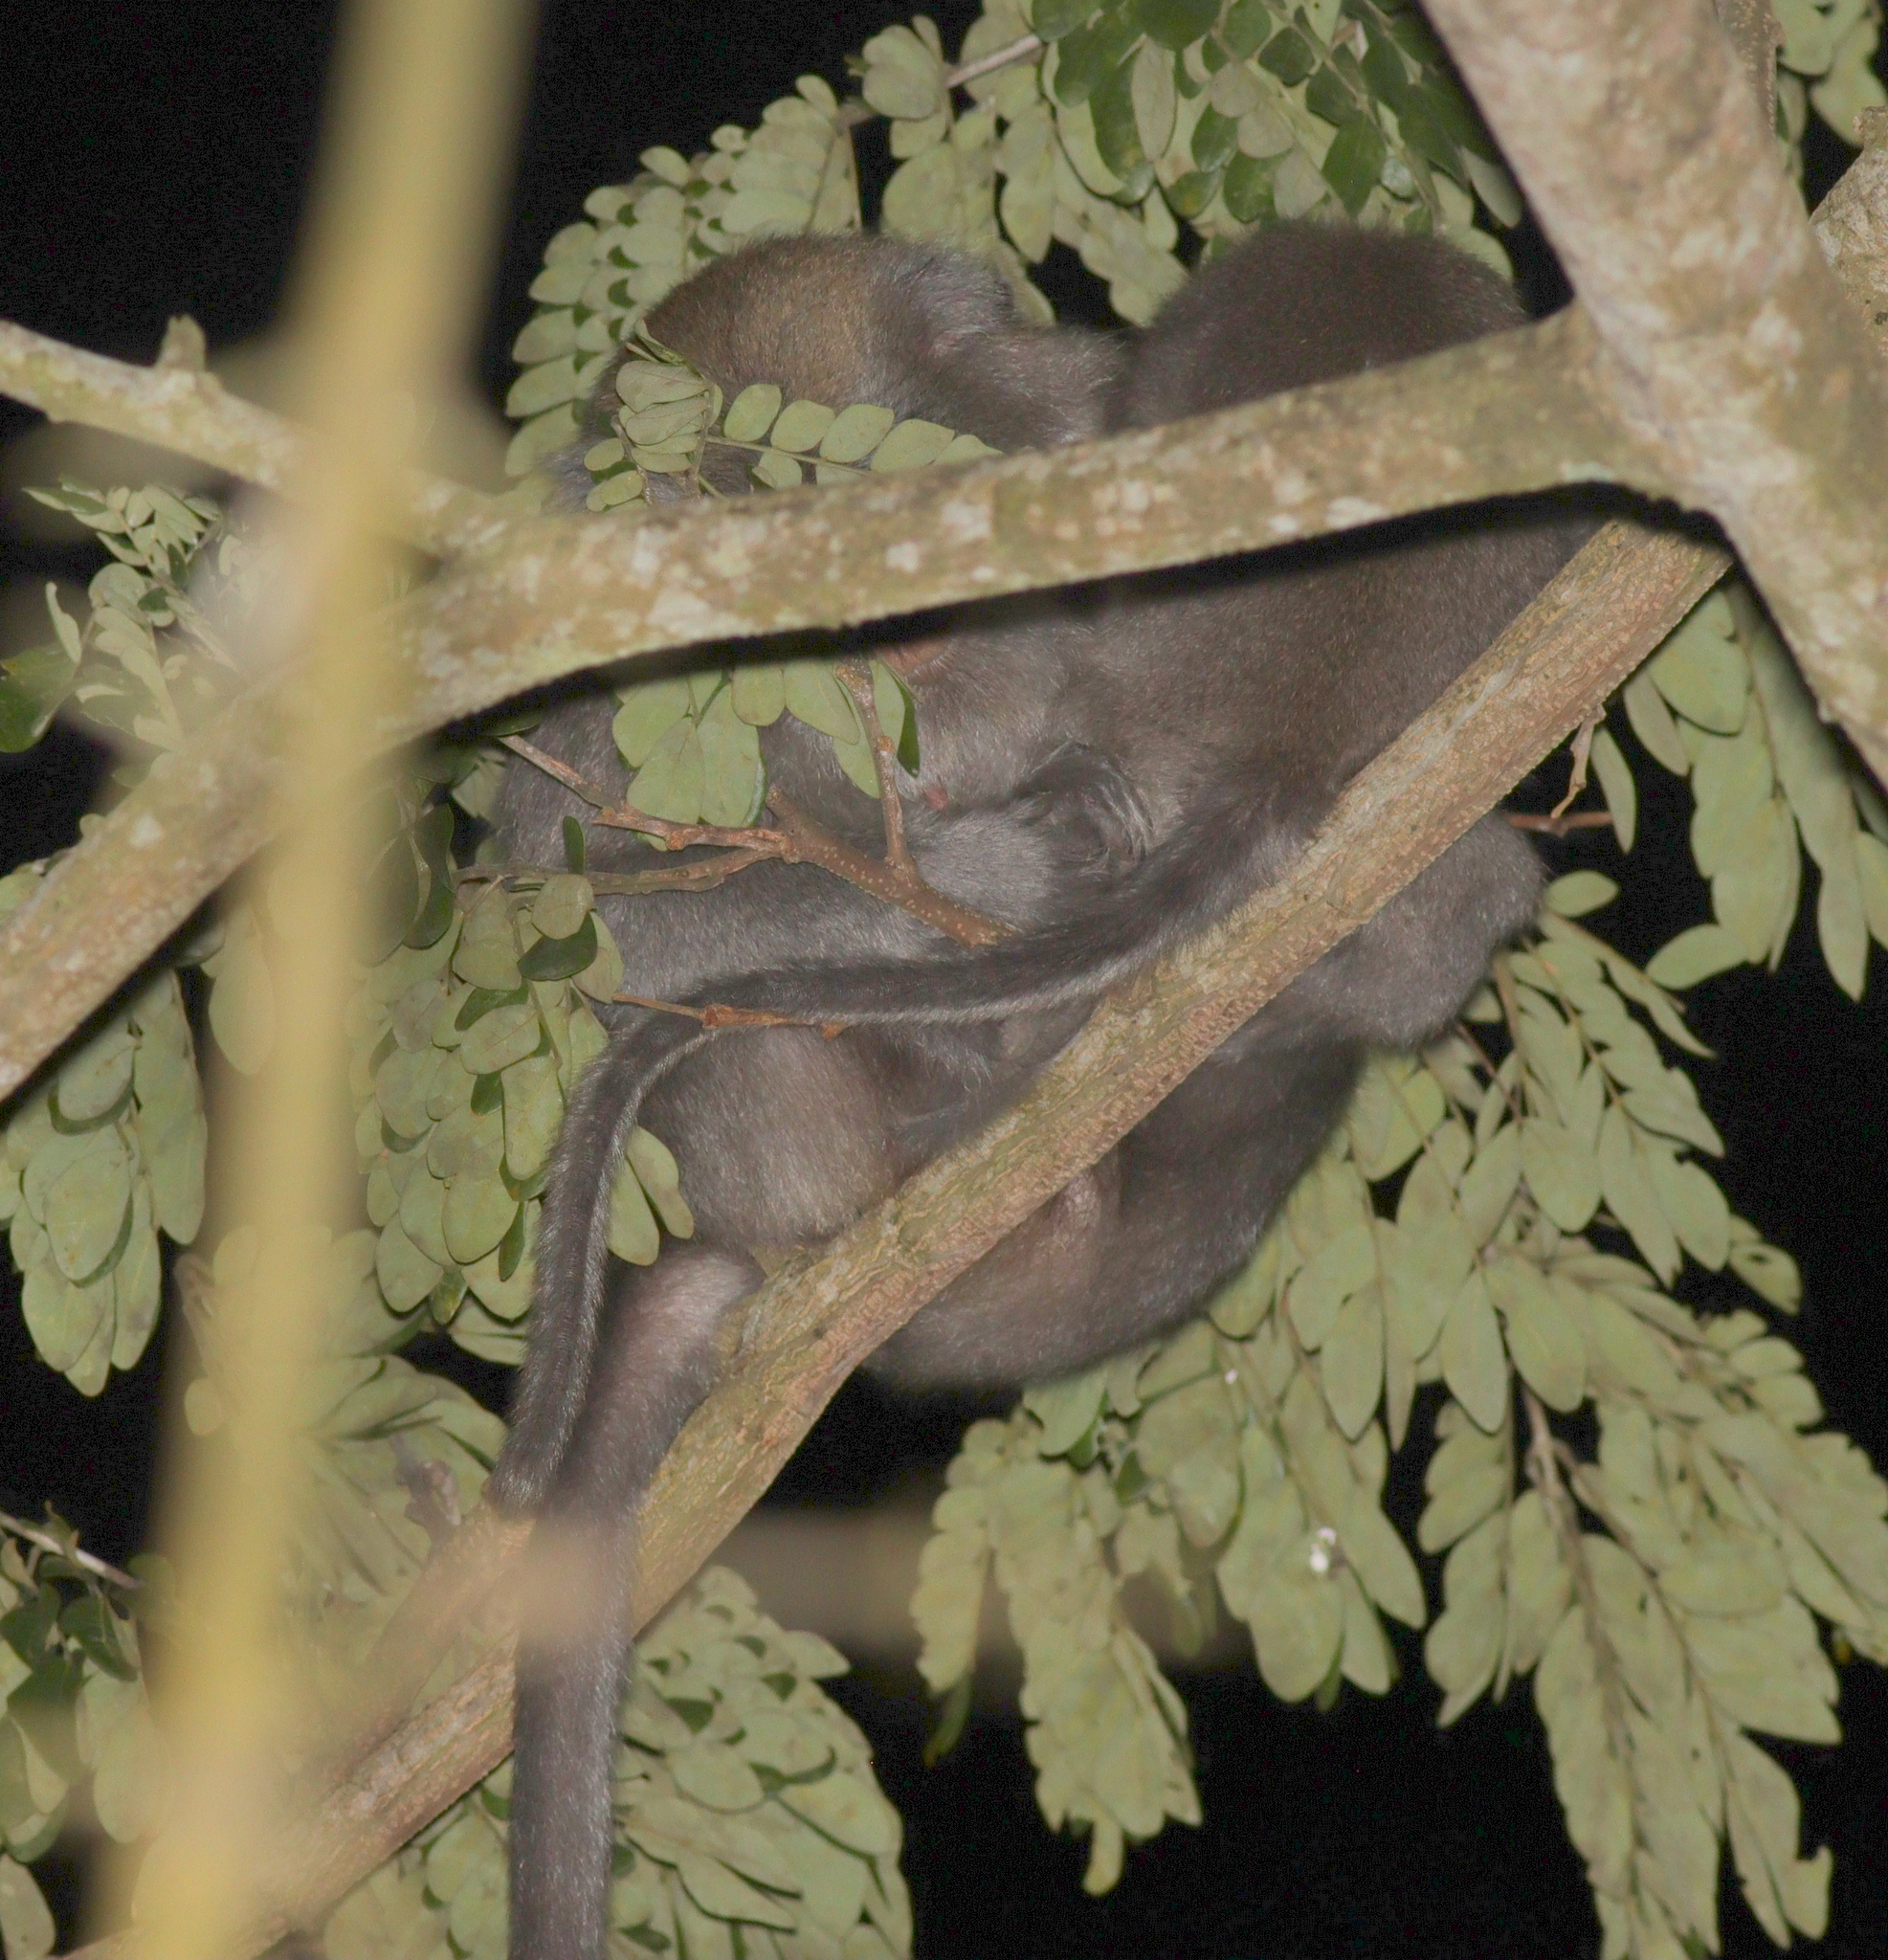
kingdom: Animalia
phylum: Chordata
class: Mammalia
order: Primates
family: Cercopithecidae
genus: Macaca
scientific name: Macaca fascicularis
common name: Crab-eating macaque
